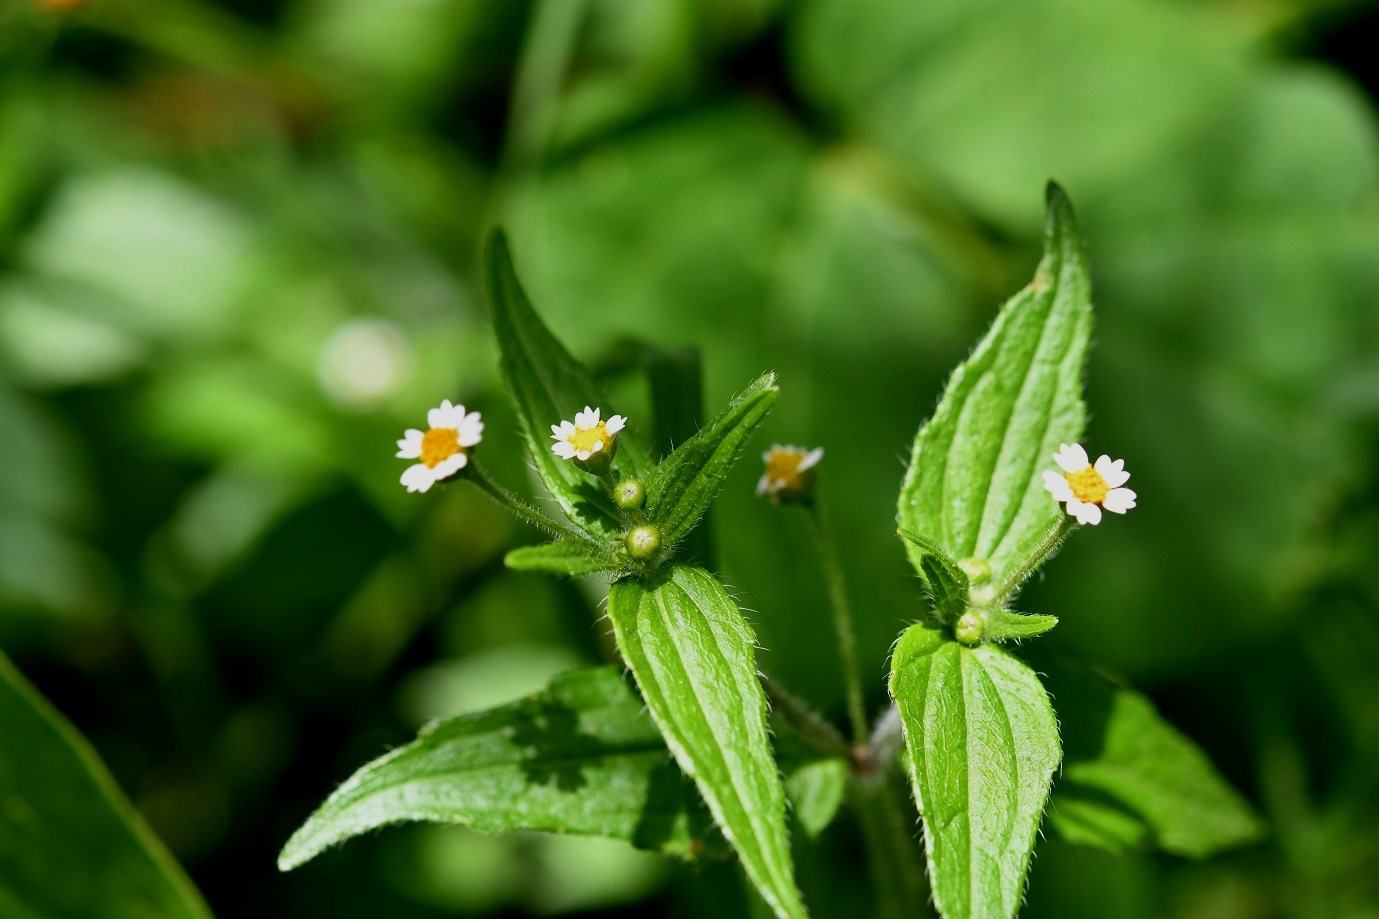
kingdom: Plantae
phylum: Tracheophyta
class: Magnoliopsida
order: Asterales
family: Asteraceae
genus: Galinsoga
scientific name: Galinsoga quadriradiata
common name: Shaggy soldier
